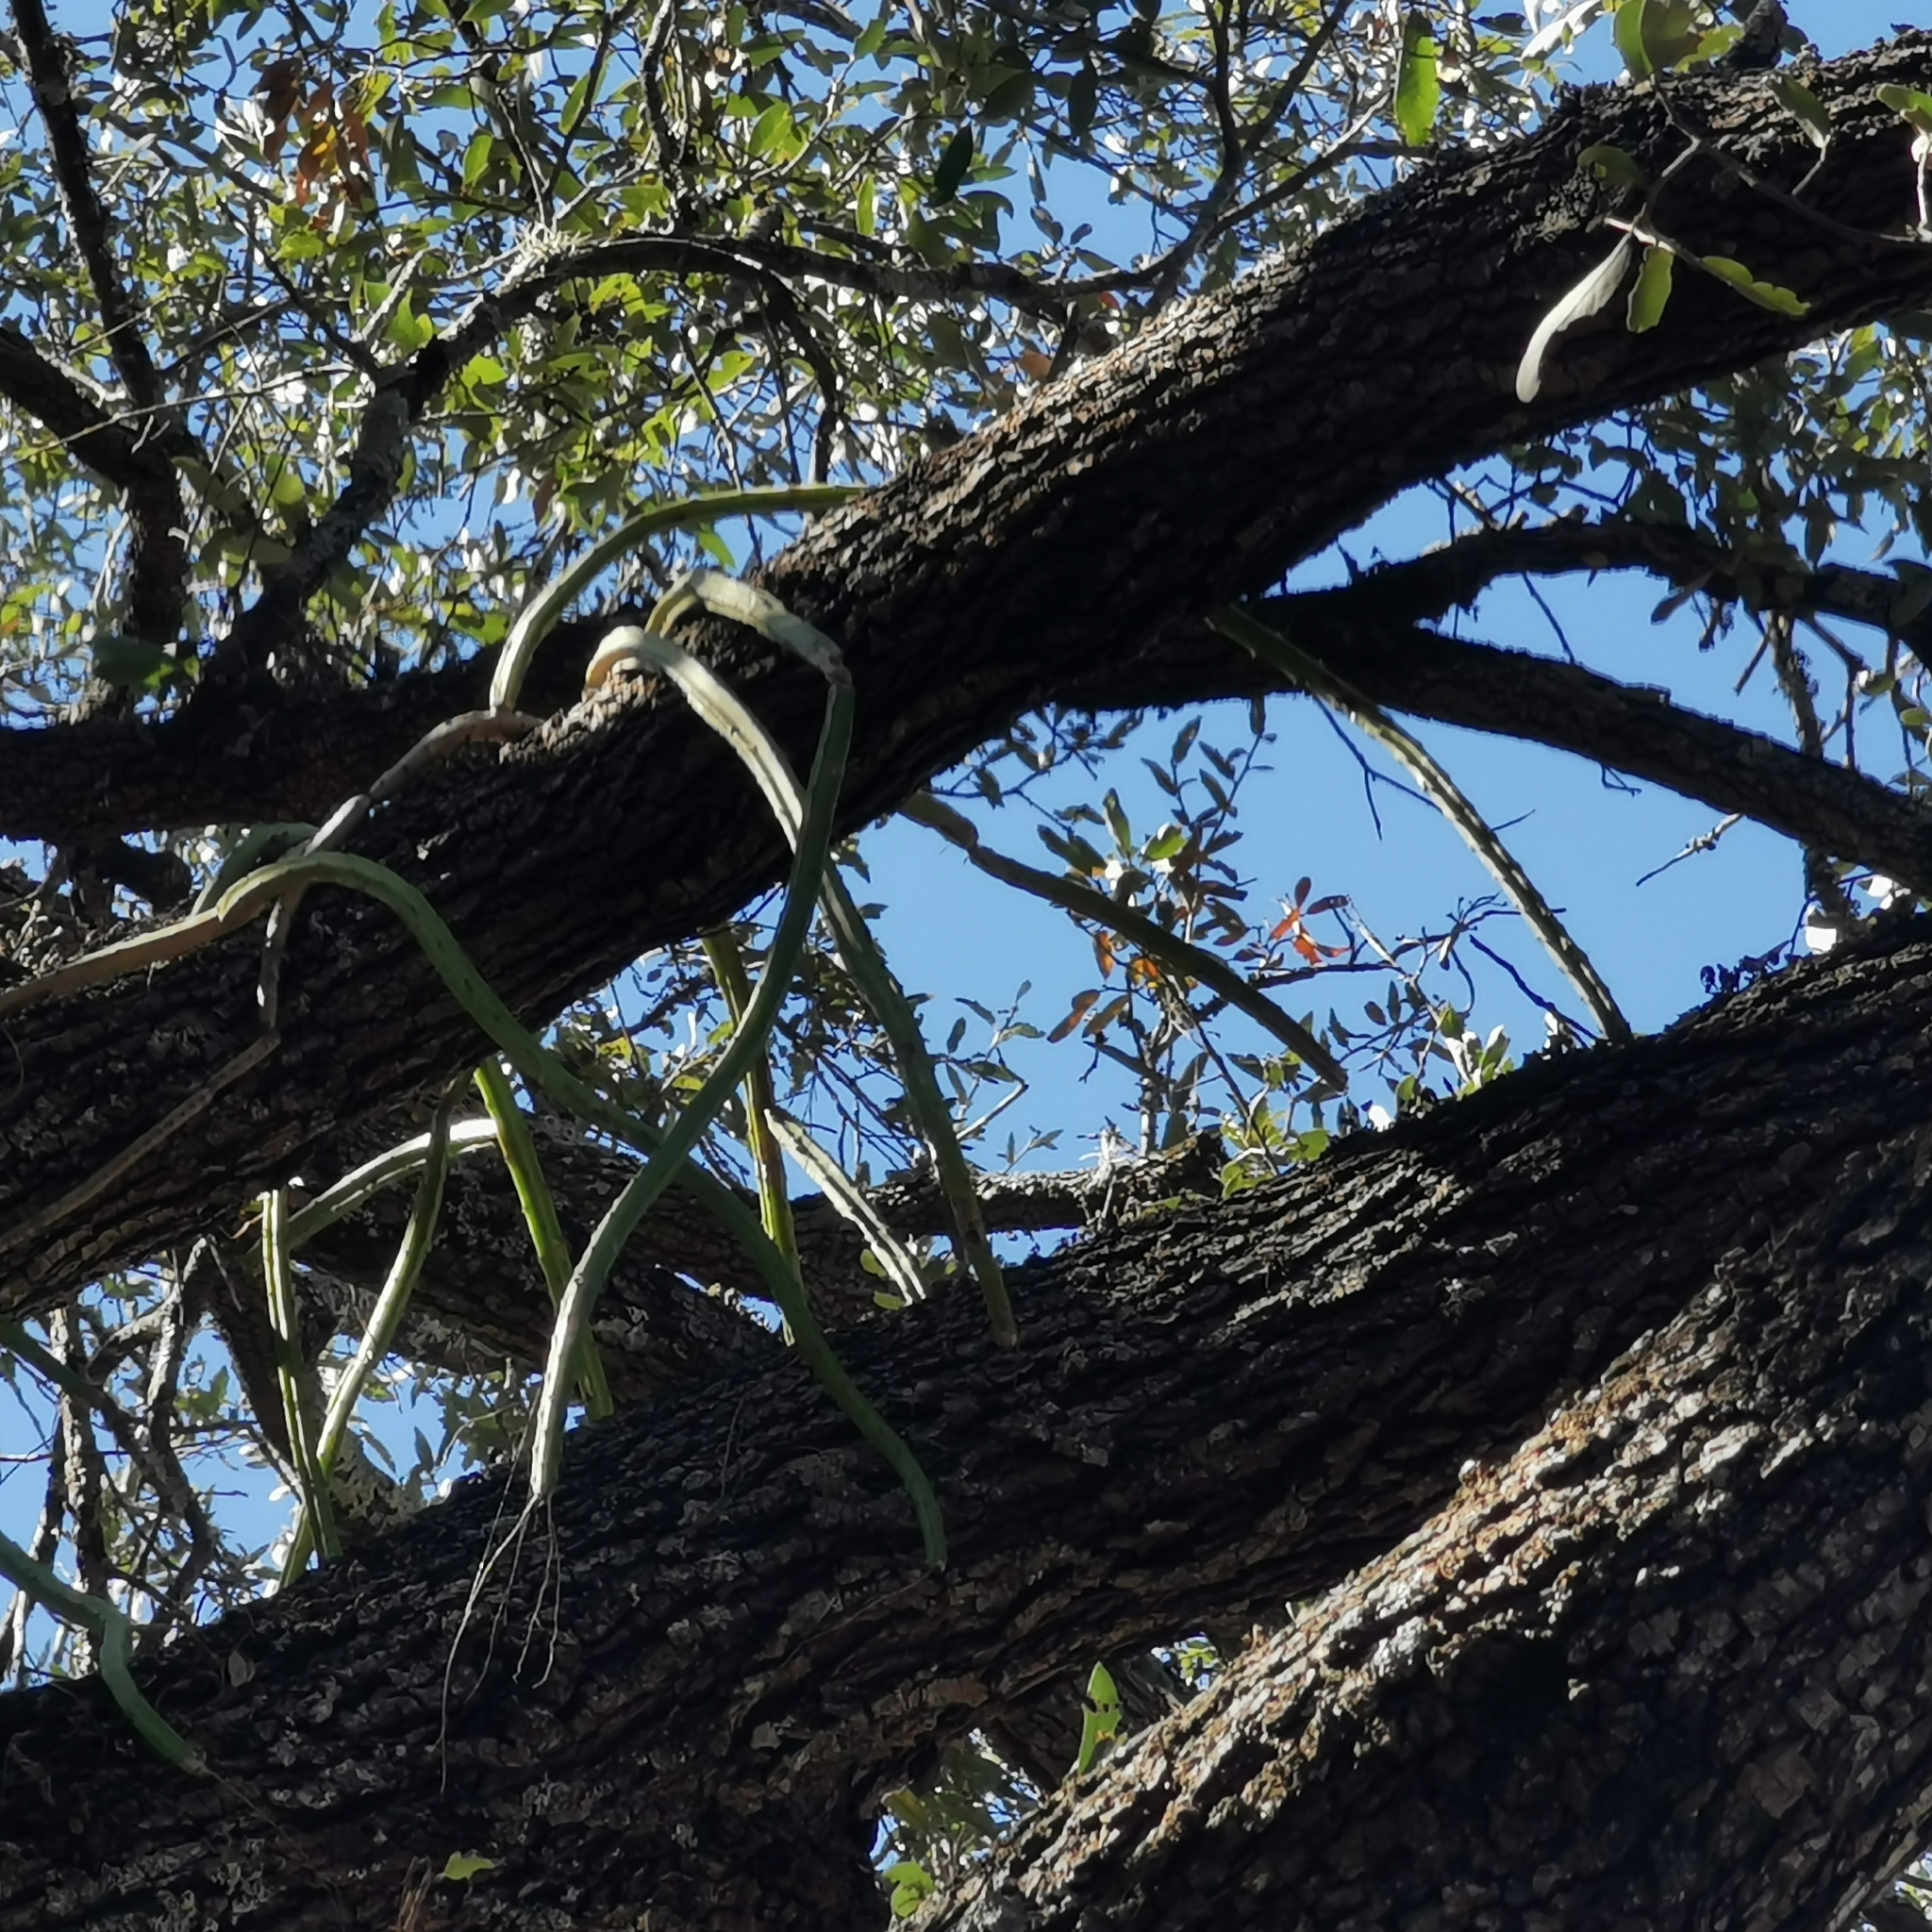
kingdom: Plantae
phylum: Tracheophyta
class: Magnoliopsida
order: Caryophyllales
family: Cactaceae
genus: Selenicereus
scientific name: Selenicereus spinulosus
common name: Nightblooming cereus
